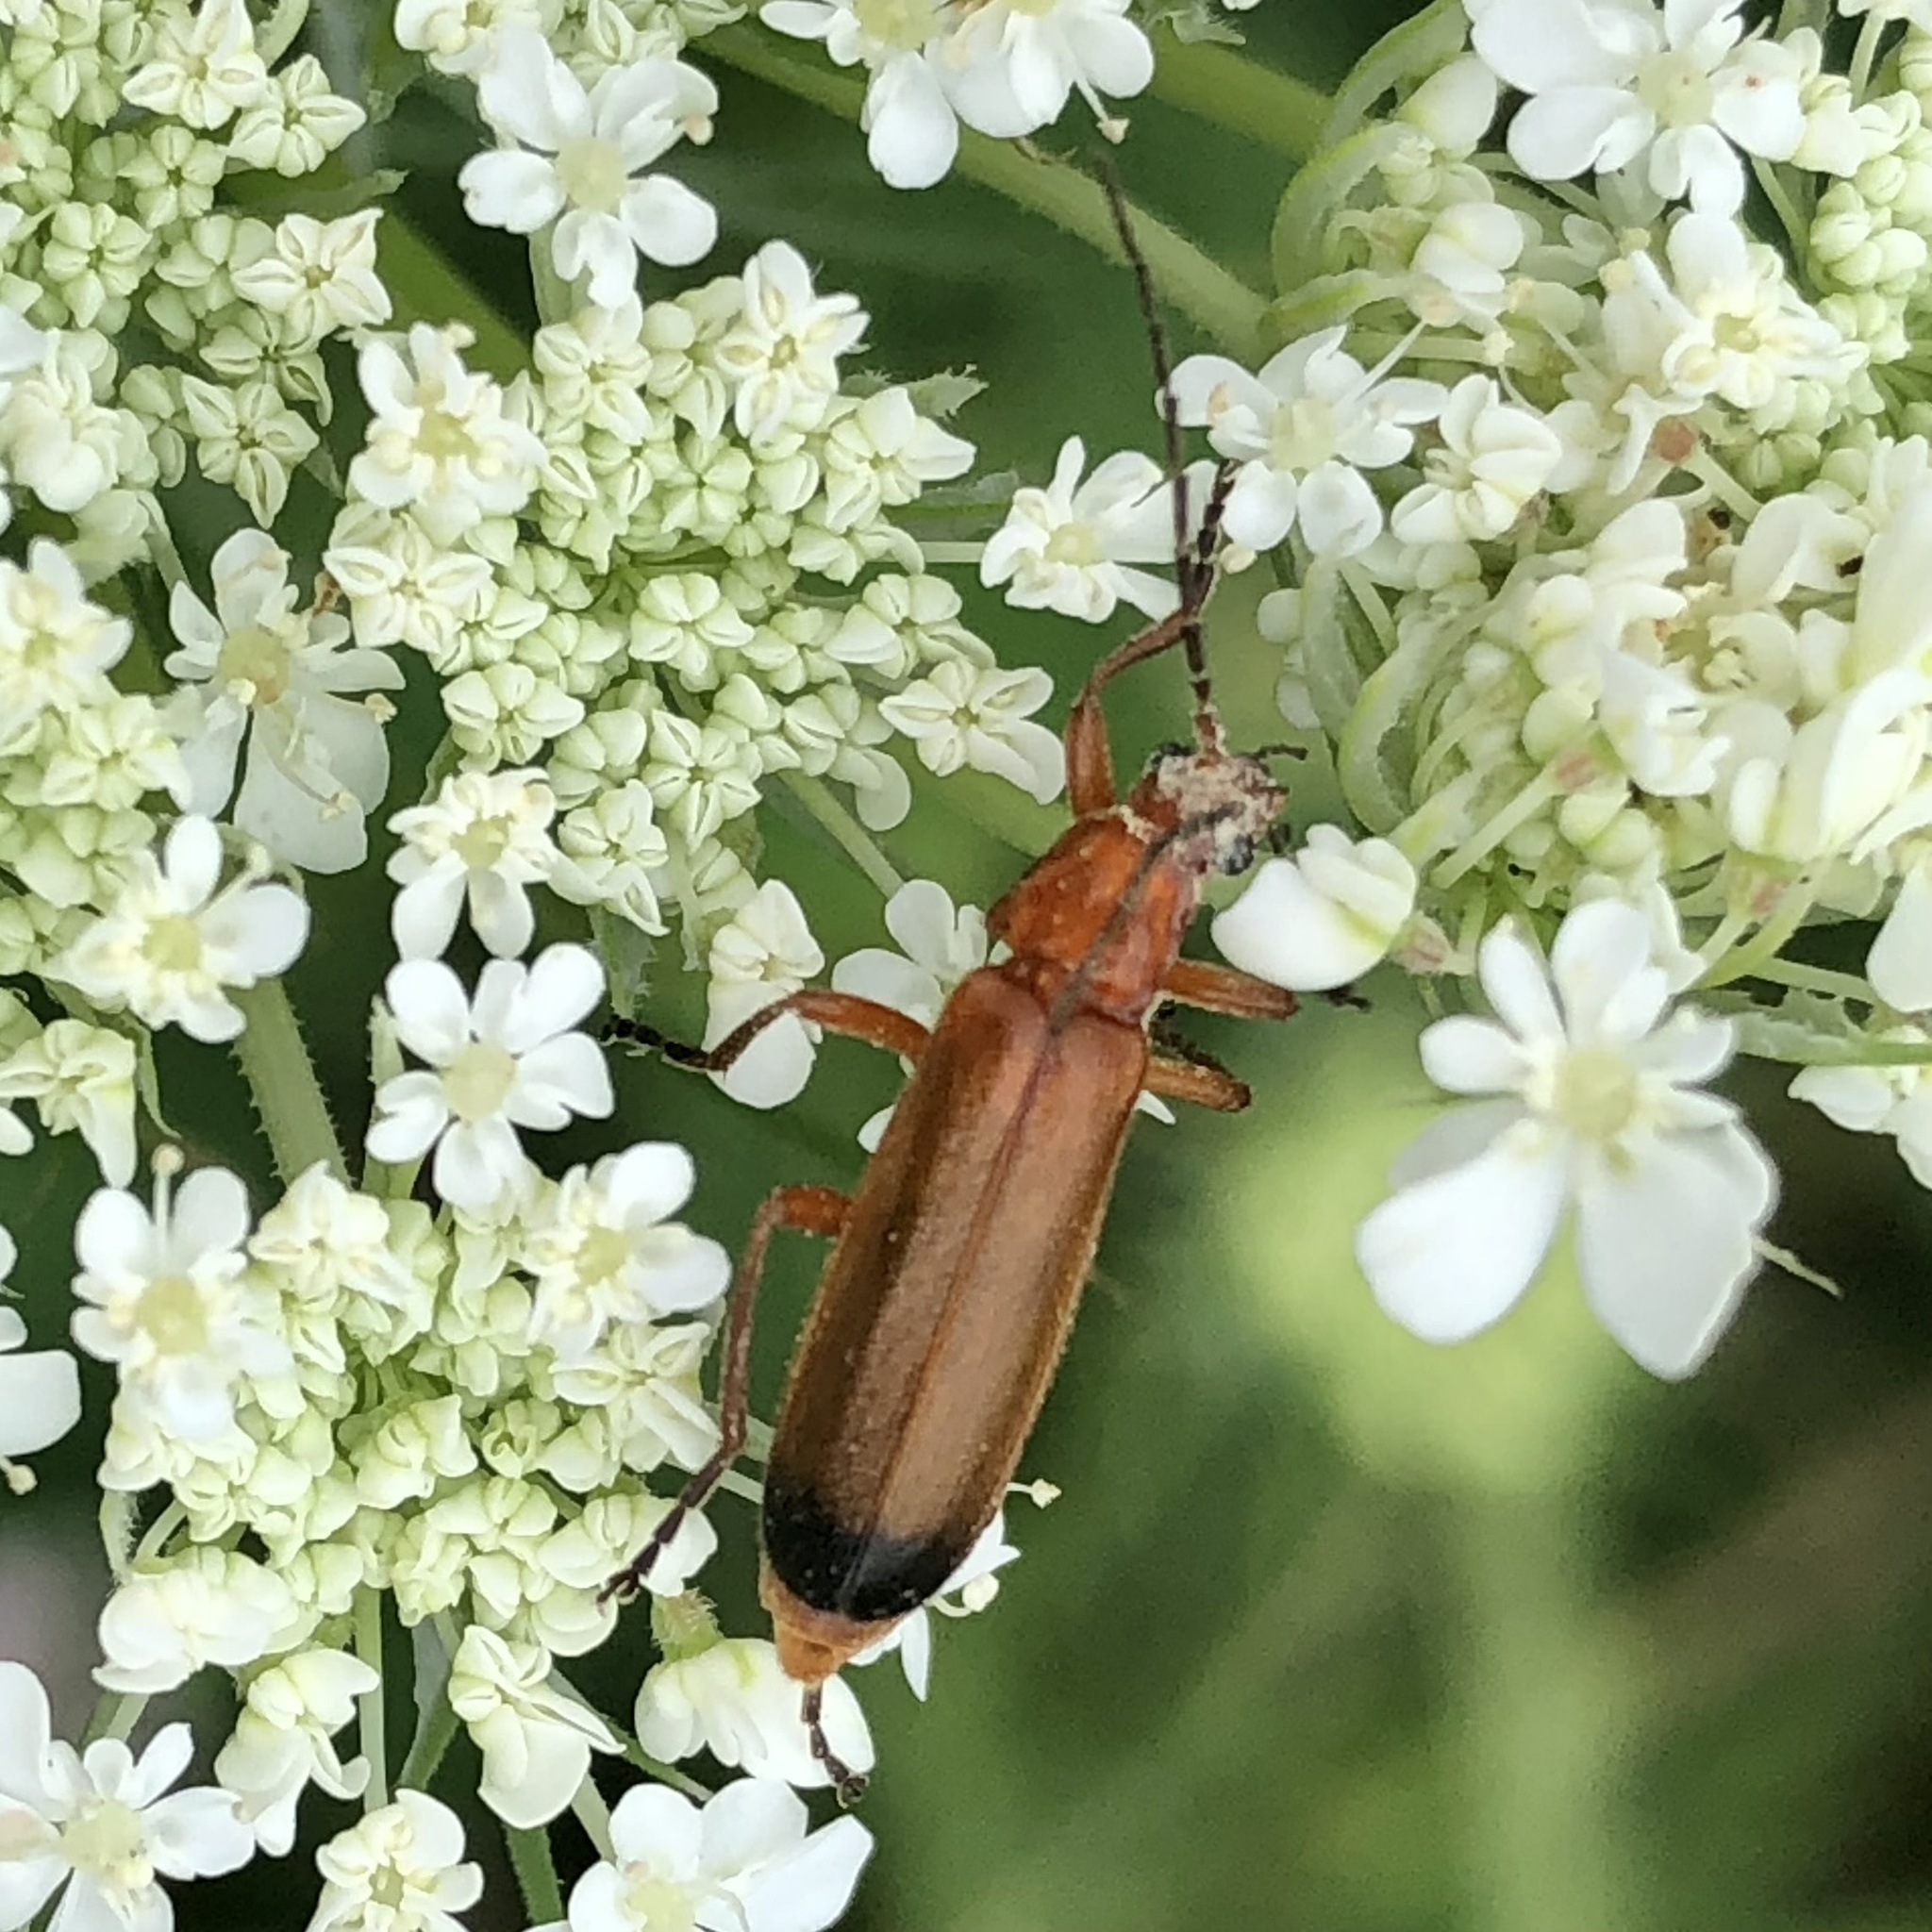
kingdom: Animalia
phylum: Arthropoda
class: Insecta
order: Coleoptera
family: Cantharidae
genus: Rhagonycha
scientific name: Rhagonycha fulva
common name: Common red soldier beetle
